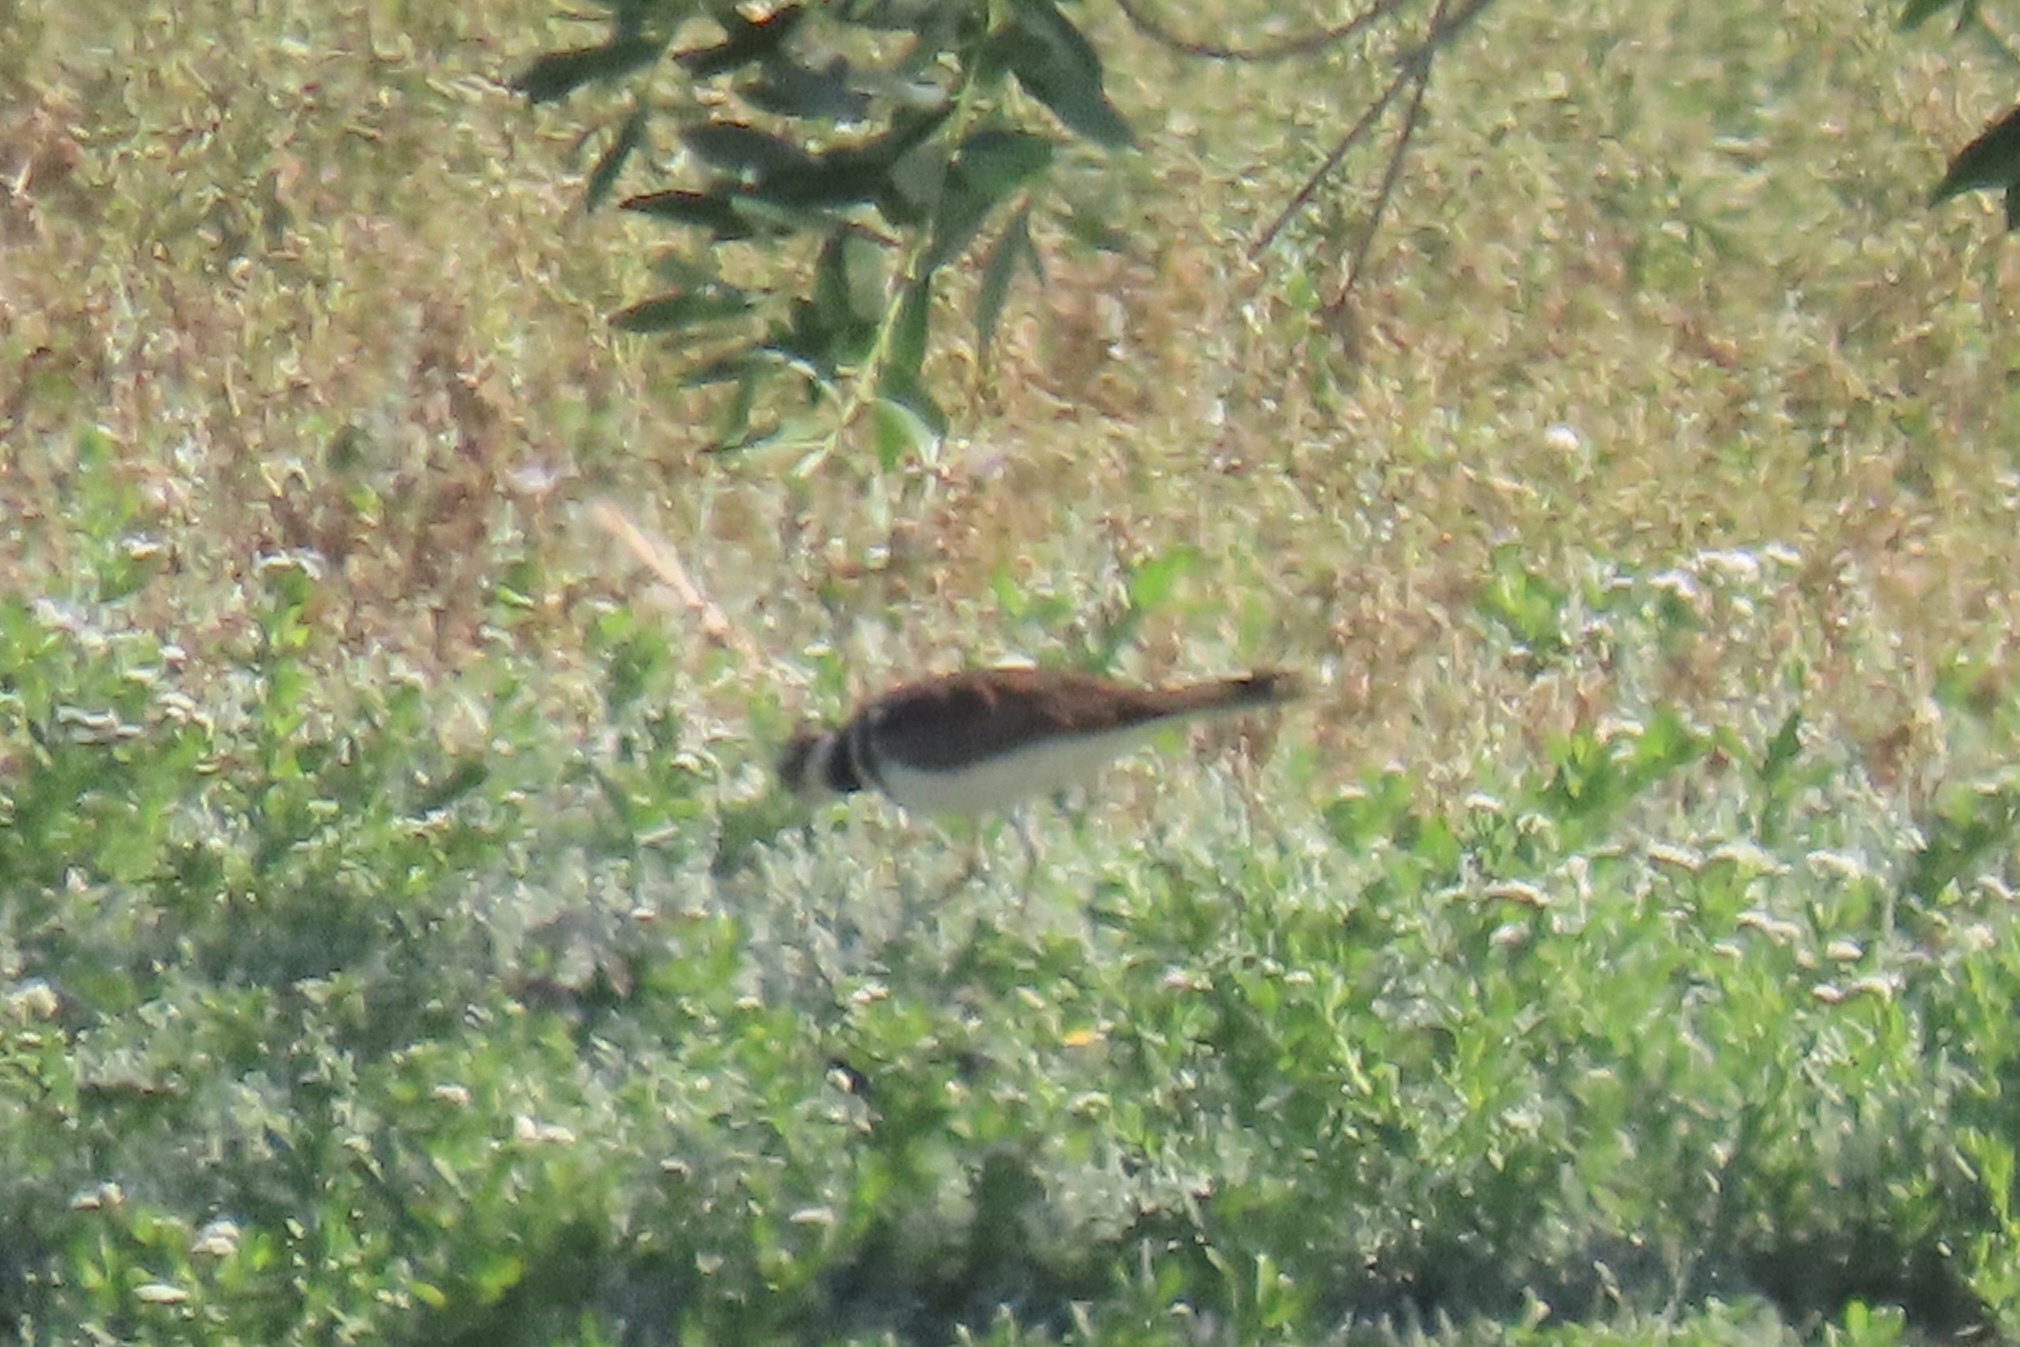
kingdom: Animalia
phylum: Chordata
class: Aves
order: Charadriiformes
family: Charadriidae
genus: Charadrius
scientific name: Charadrius vociferus
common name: Killdeer
